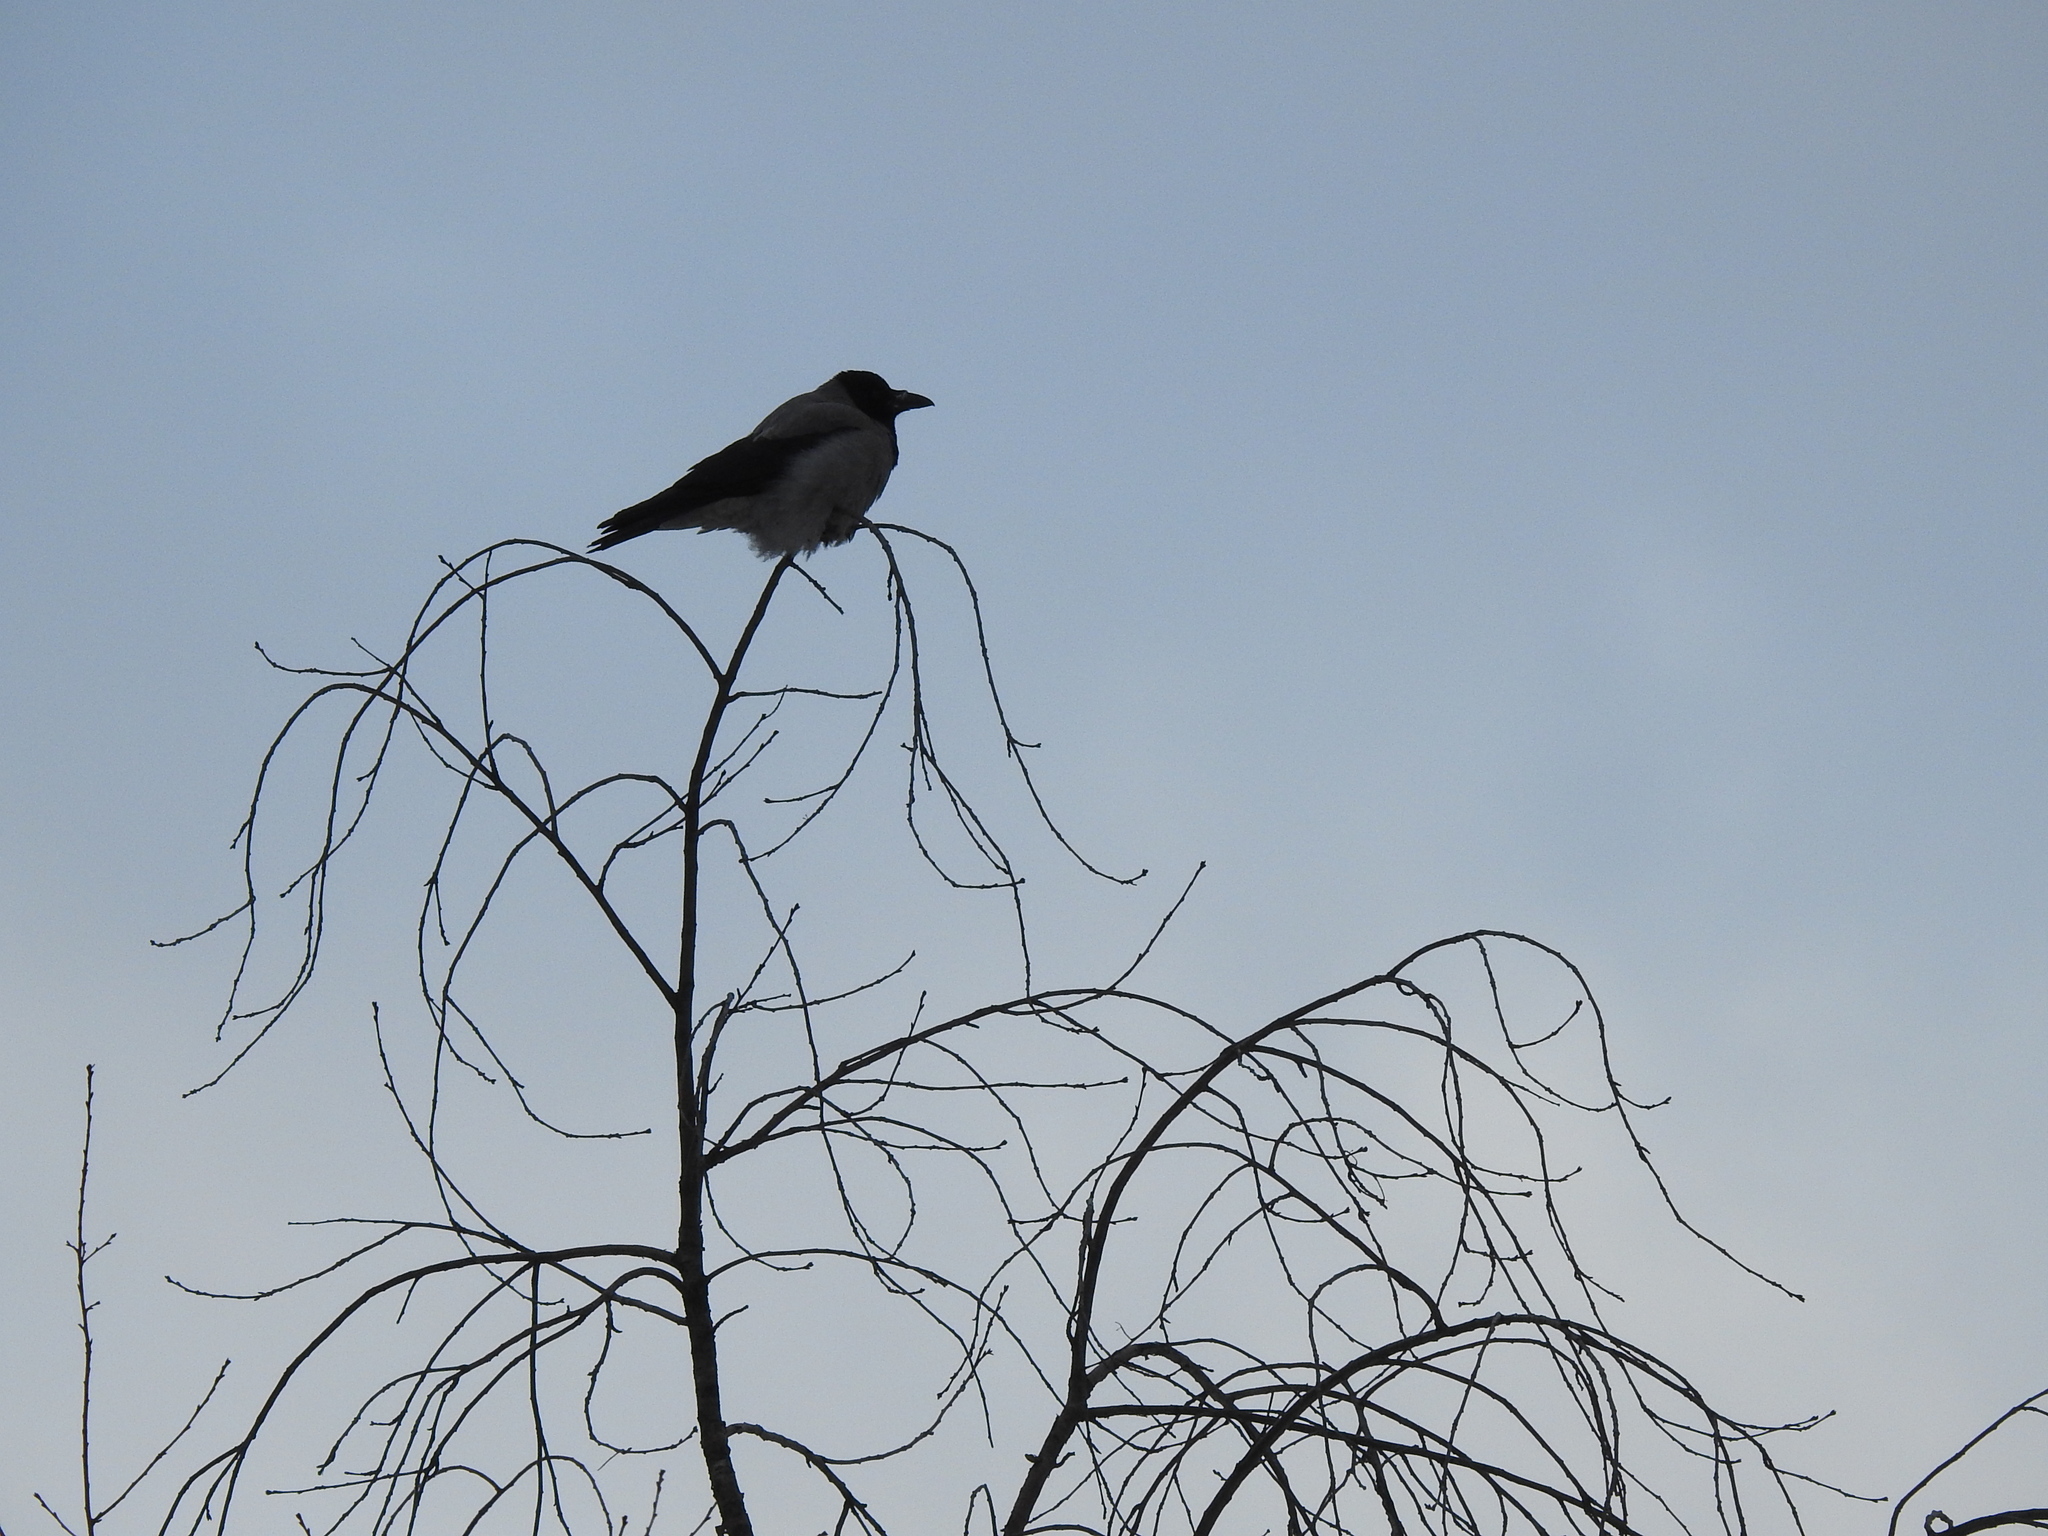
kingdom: Animalia
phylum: Chordata
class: Aves
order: Passeriformes
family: Corvidae
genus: Corvus
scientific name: Corvus cornix
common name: Hooded crow
